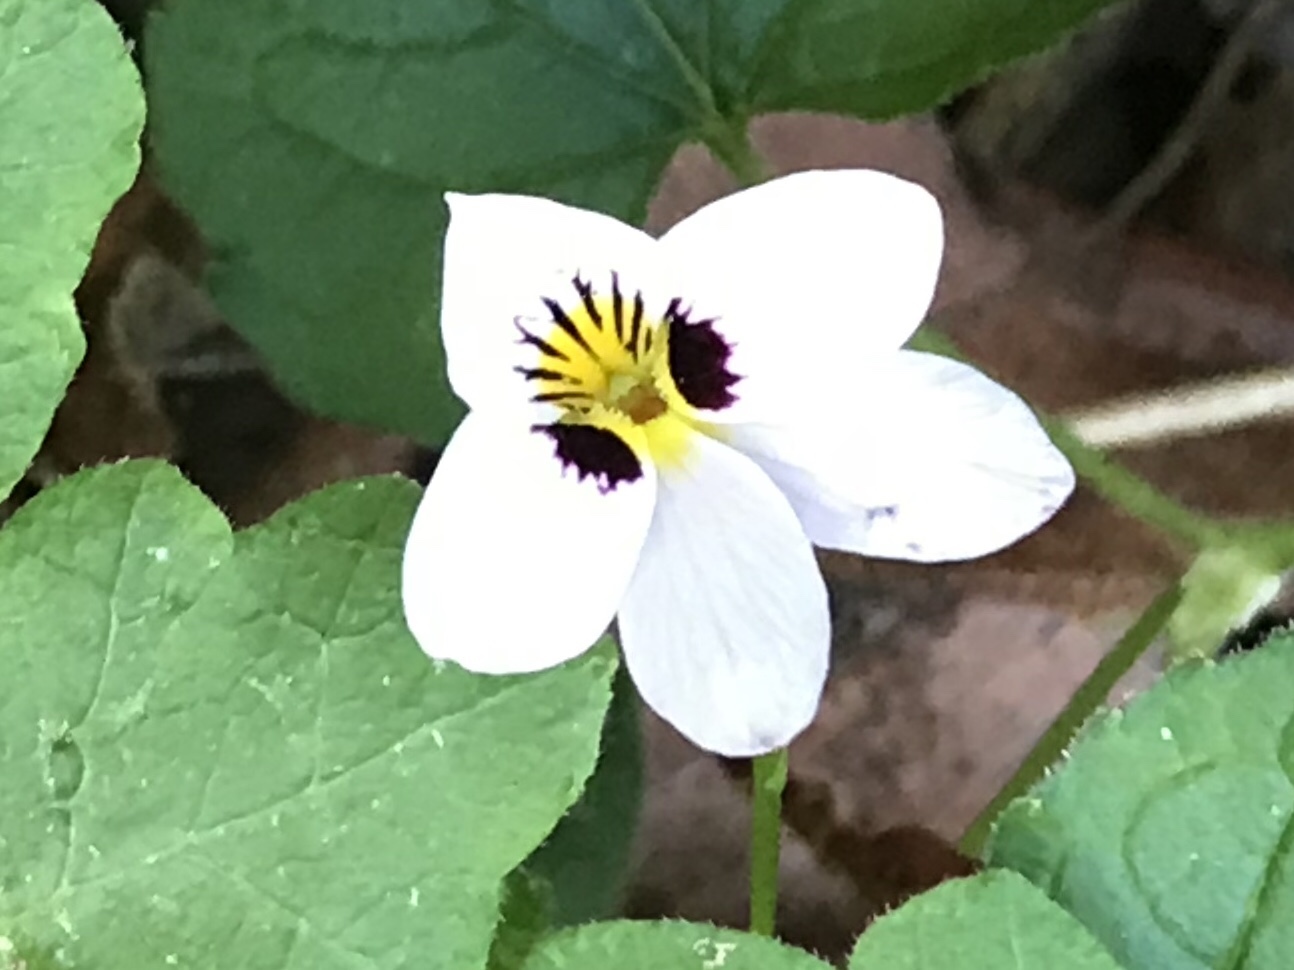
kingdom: Plantae
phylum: Tracheophyta
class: Magnoliopsida
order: Malpighiales
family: Violaceae
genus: Viola
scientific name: Viola ocellata
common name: Western heart's ease
